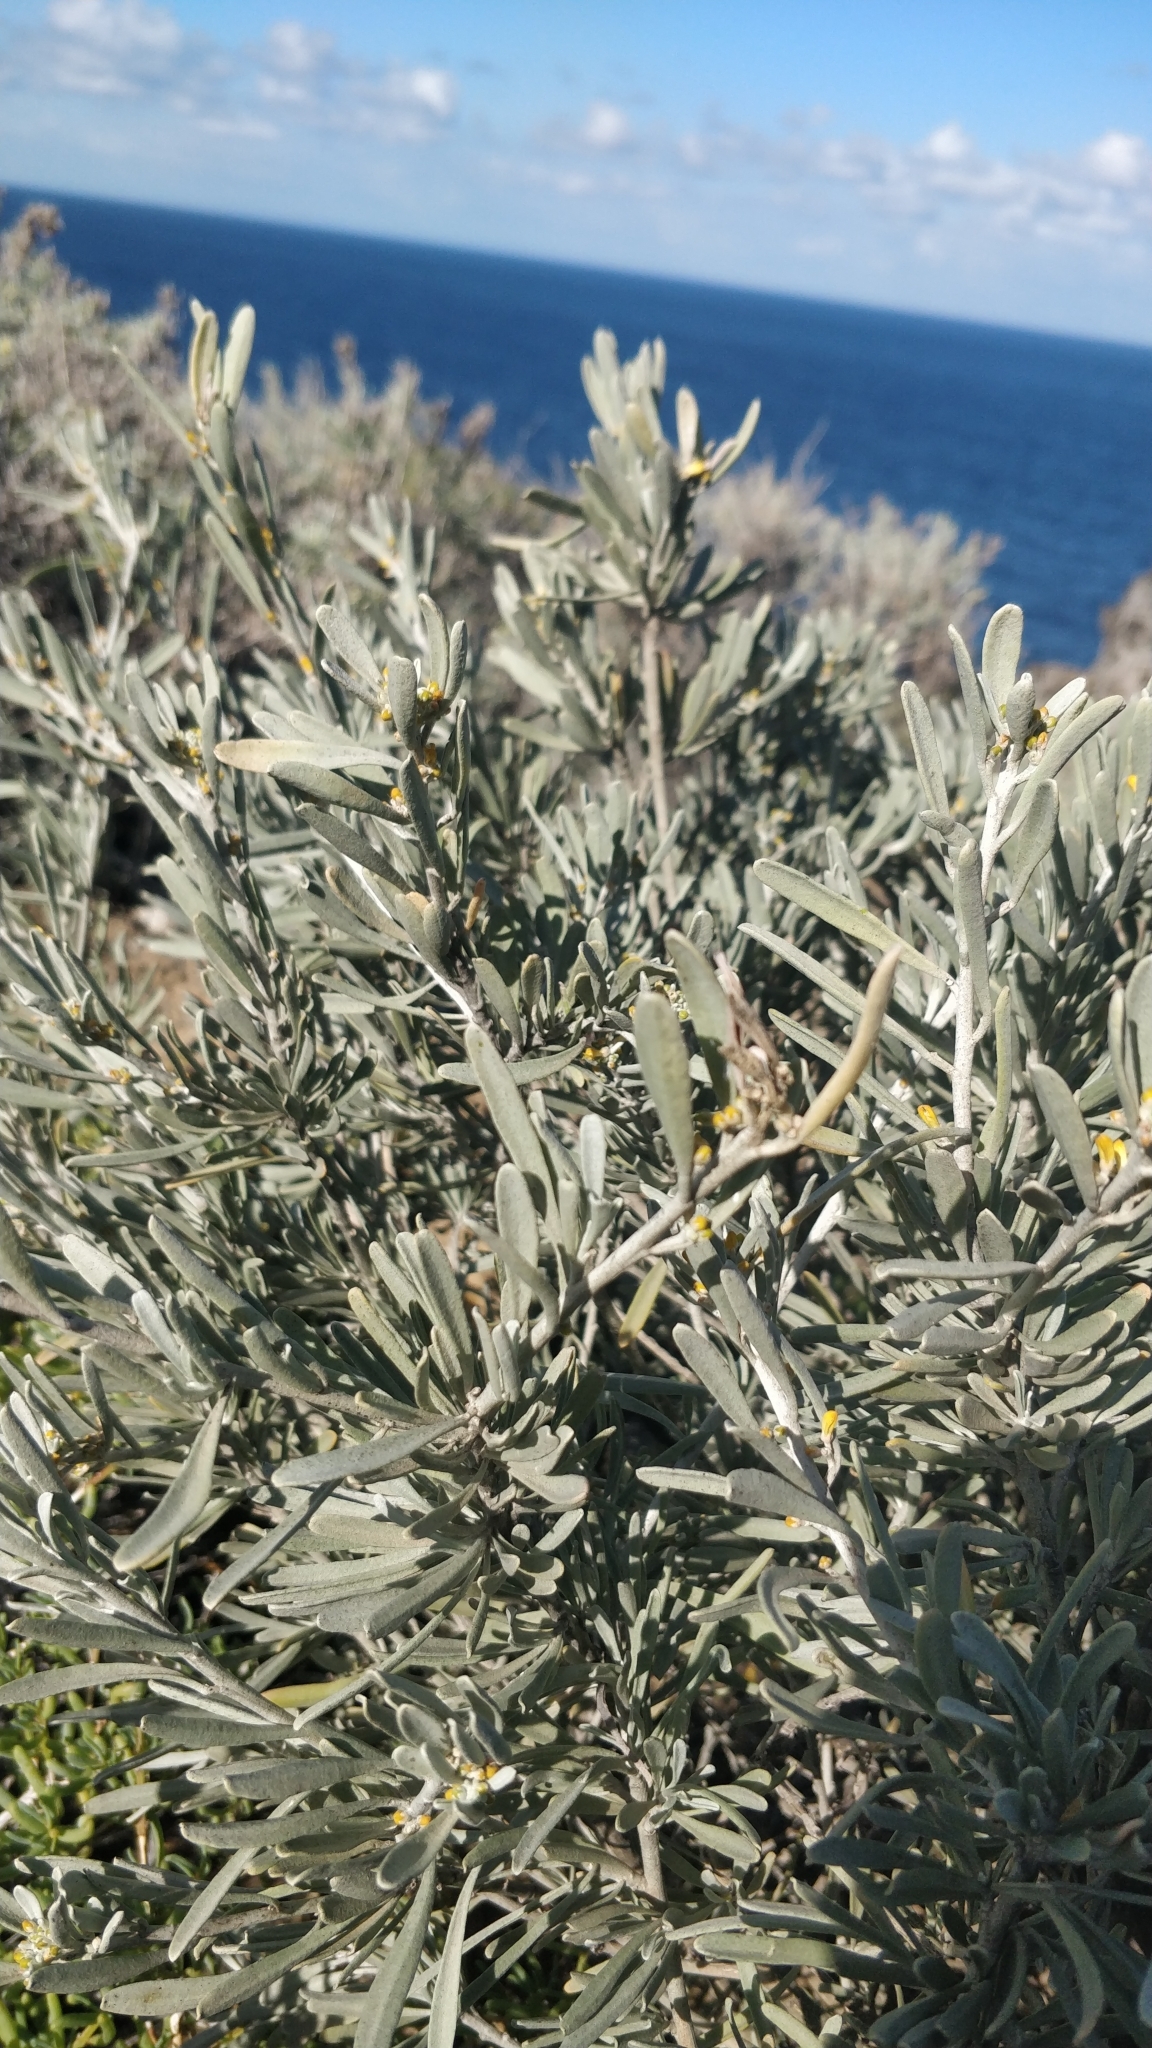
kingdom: Plantae
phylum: Tracheophyta
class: Magnoliopsida
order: Sapindales
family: Rutaceae
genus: Cneorum
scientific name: Cneorum pulverulentum
